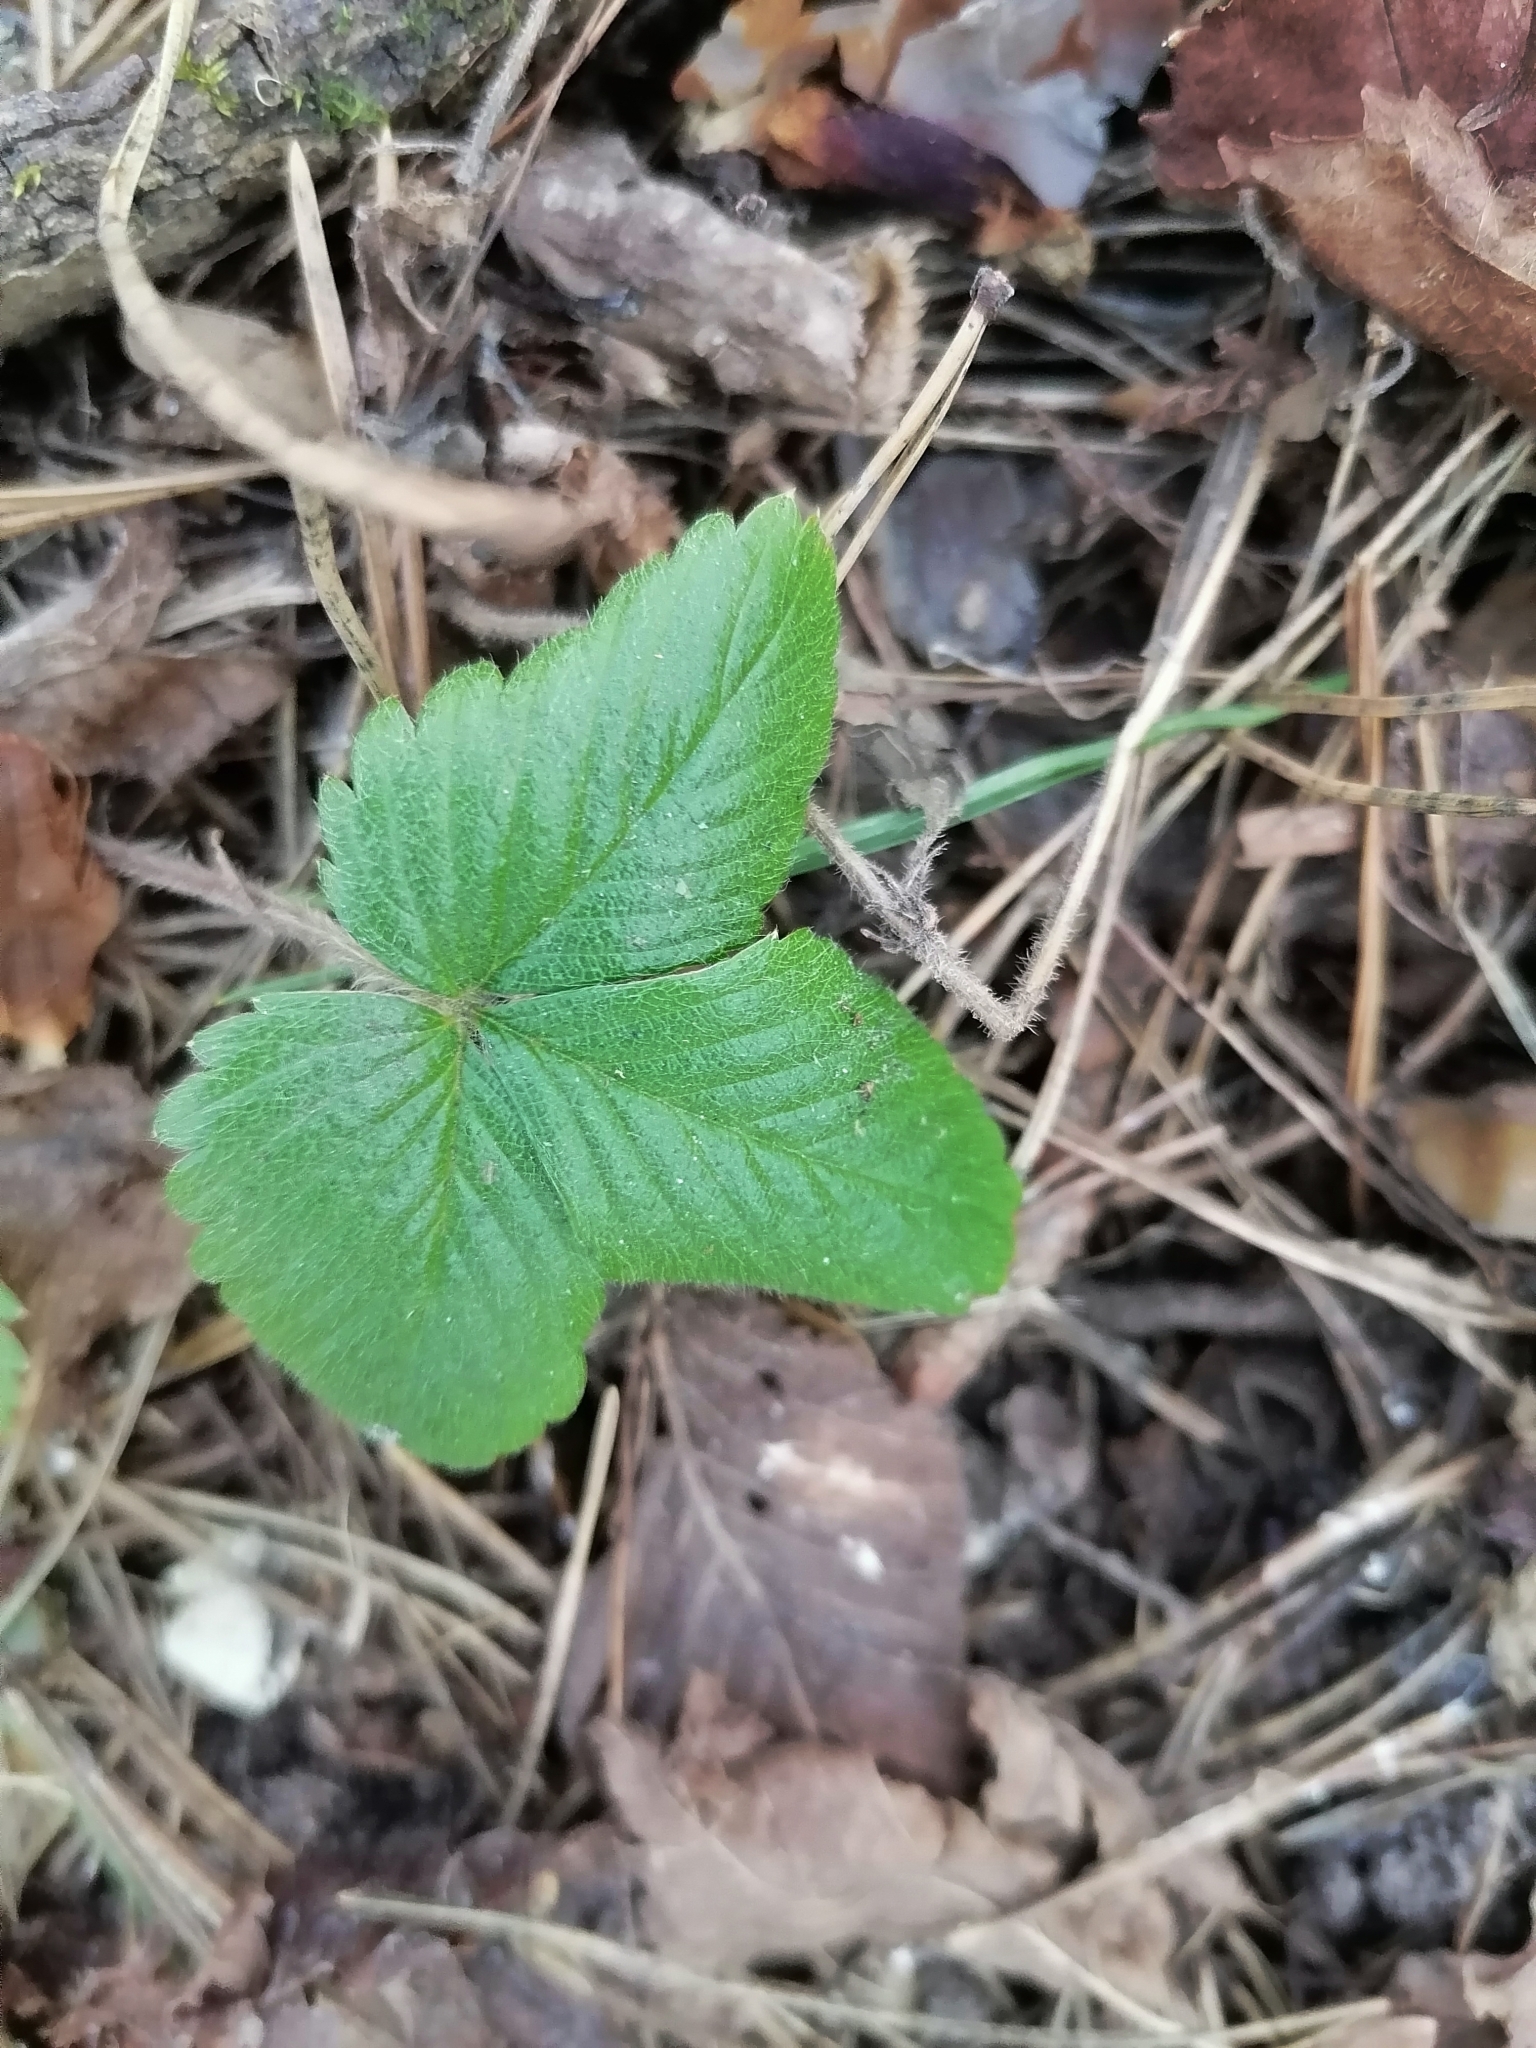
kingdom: Plantae
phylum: Tracheophyta
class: Magnoliopsida
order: Rosales
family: Rosaceae
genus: Fragaria
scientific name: Fragaria vesca
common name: Wild strawberry
